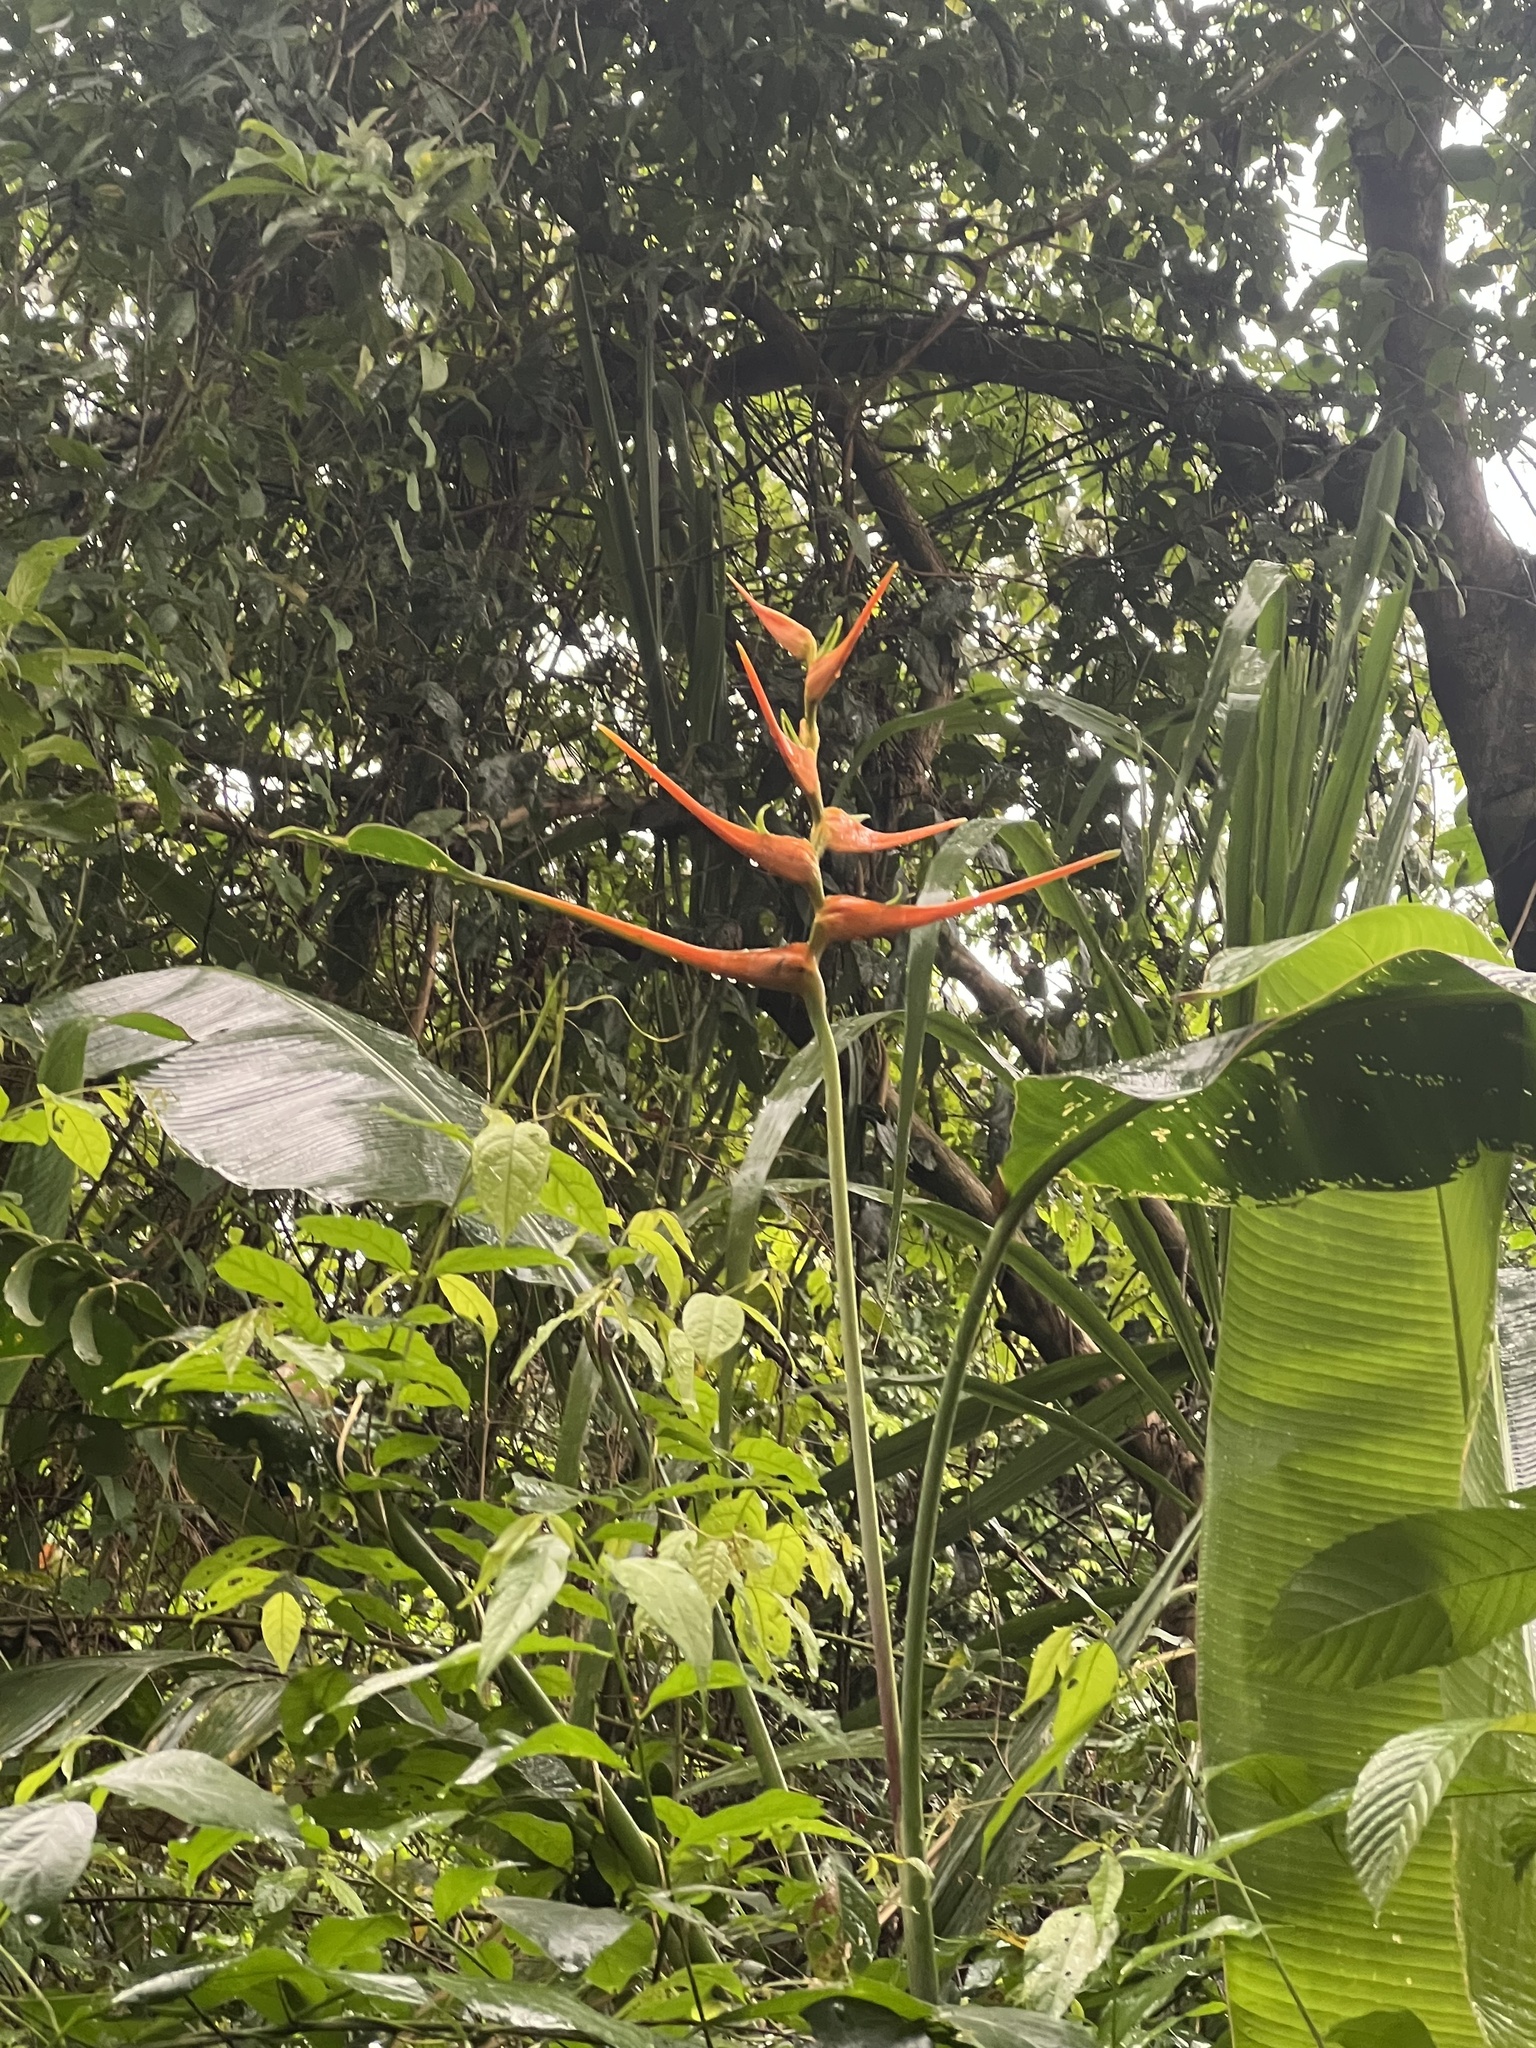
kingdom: Plantae
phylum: Tracheophyta
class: Liliopsida
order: Zingiberales
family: Heliconiaceae
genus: Heliconia
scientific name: Heliconia latispatha
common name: Expanded lobsterclaw
